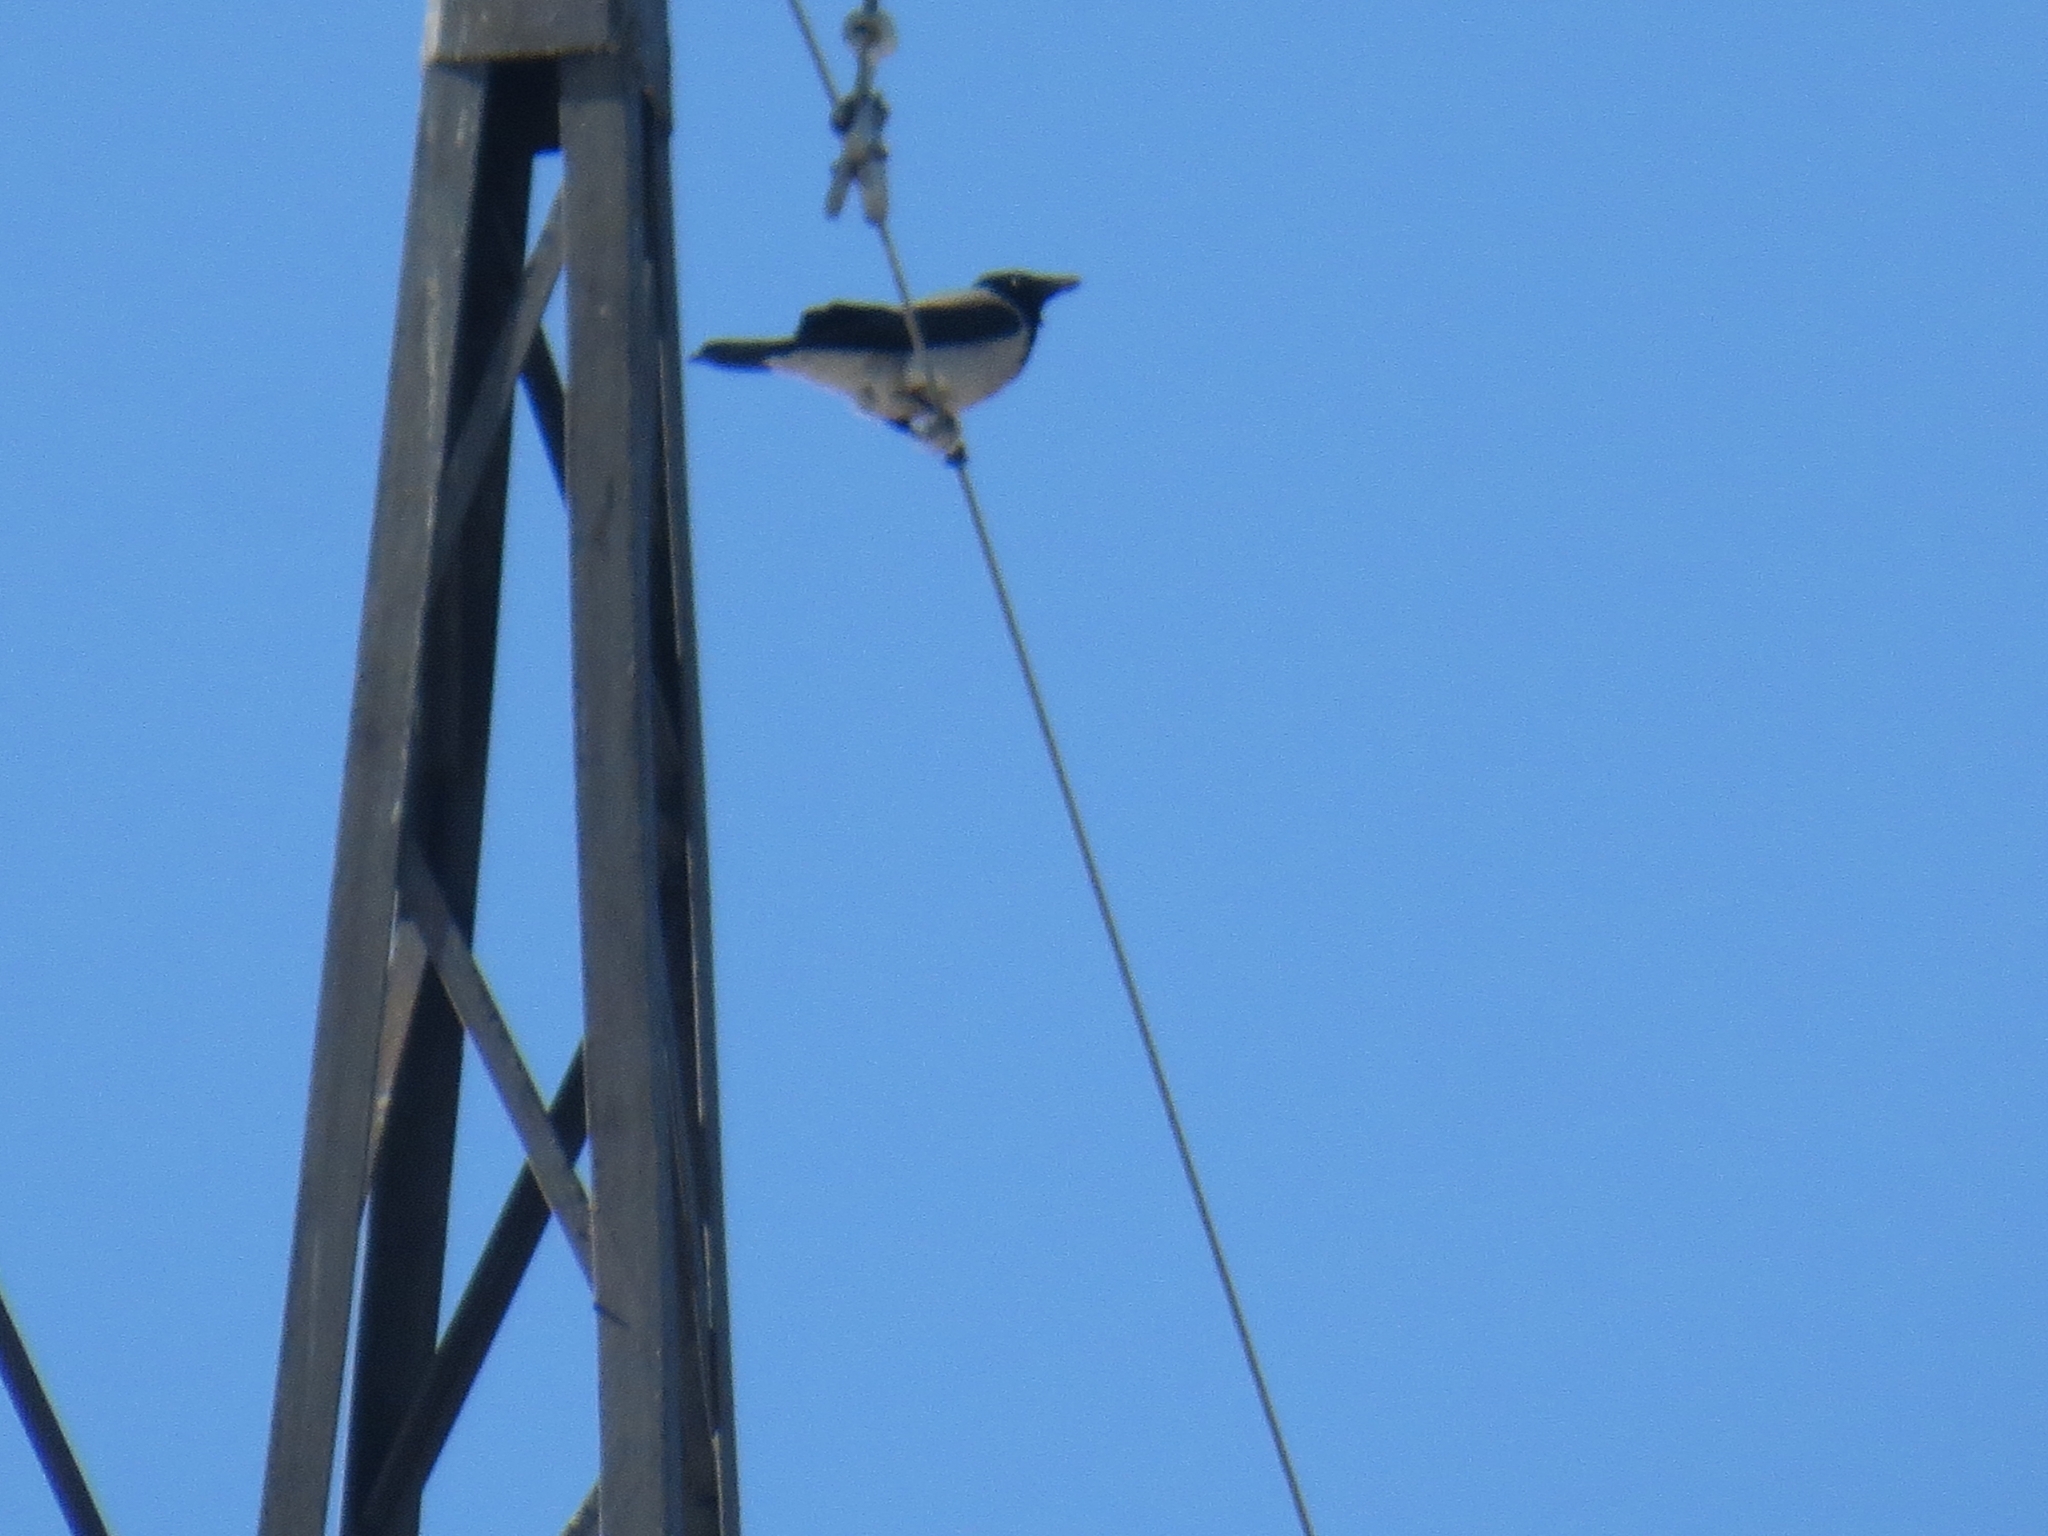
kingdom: Animalia
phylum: Chordata
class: Aves
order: Passeriformes
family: Corvidae
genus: Corvus
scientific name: Corvus cornix
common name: Hooded crow
